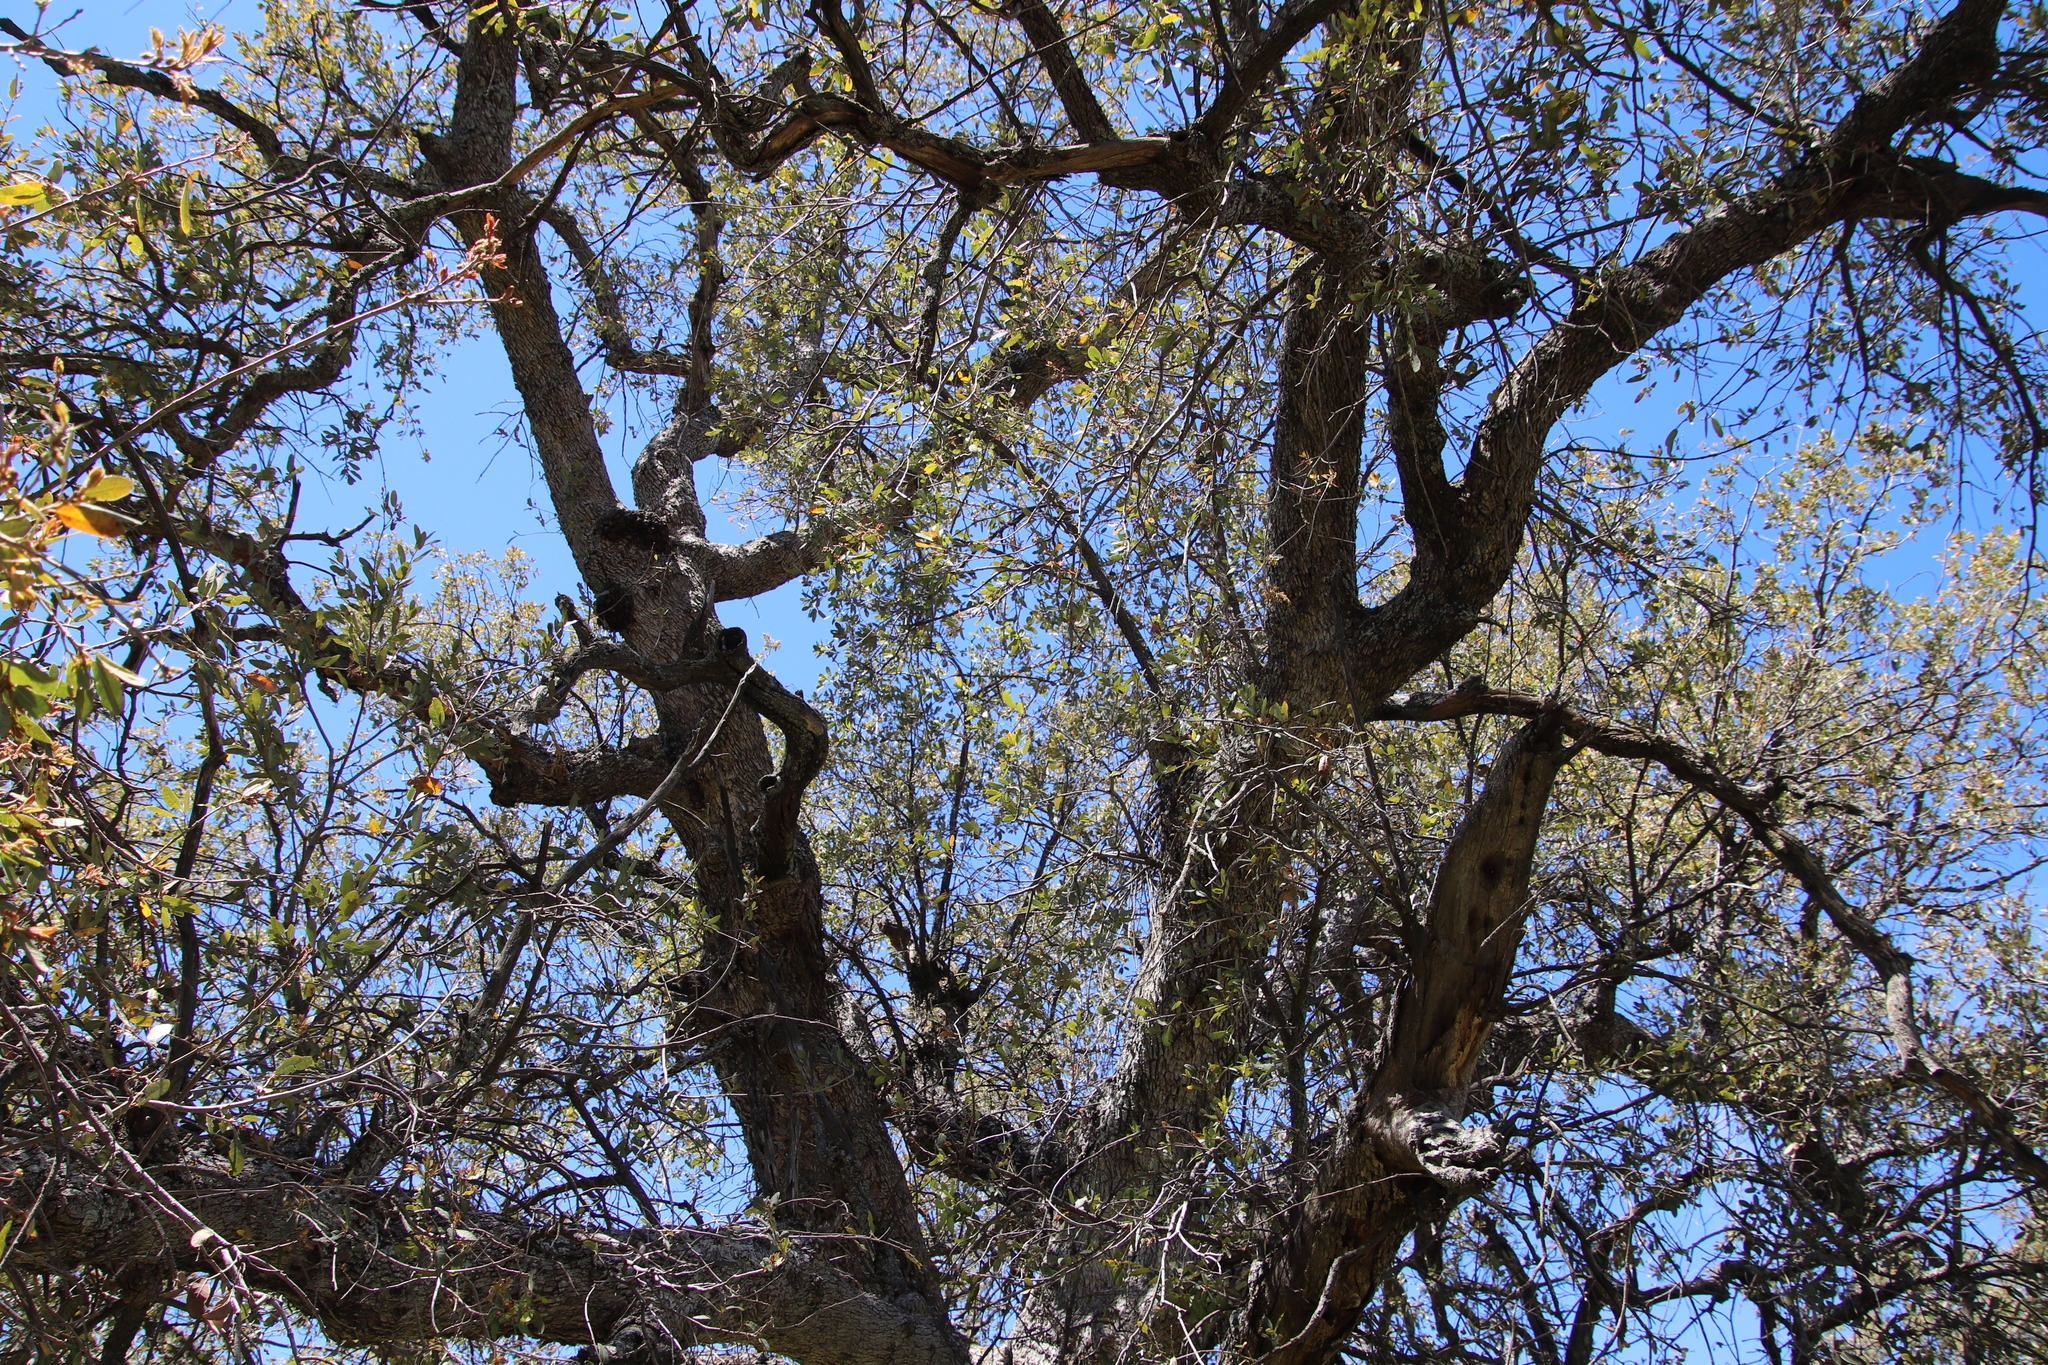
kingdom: Plantae
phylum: Tracheophyta
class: Magnoliopsida
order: Fagales
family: Fagaceae
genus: Quercus
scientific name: Quercus engelmannii
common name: Engelmann oak
